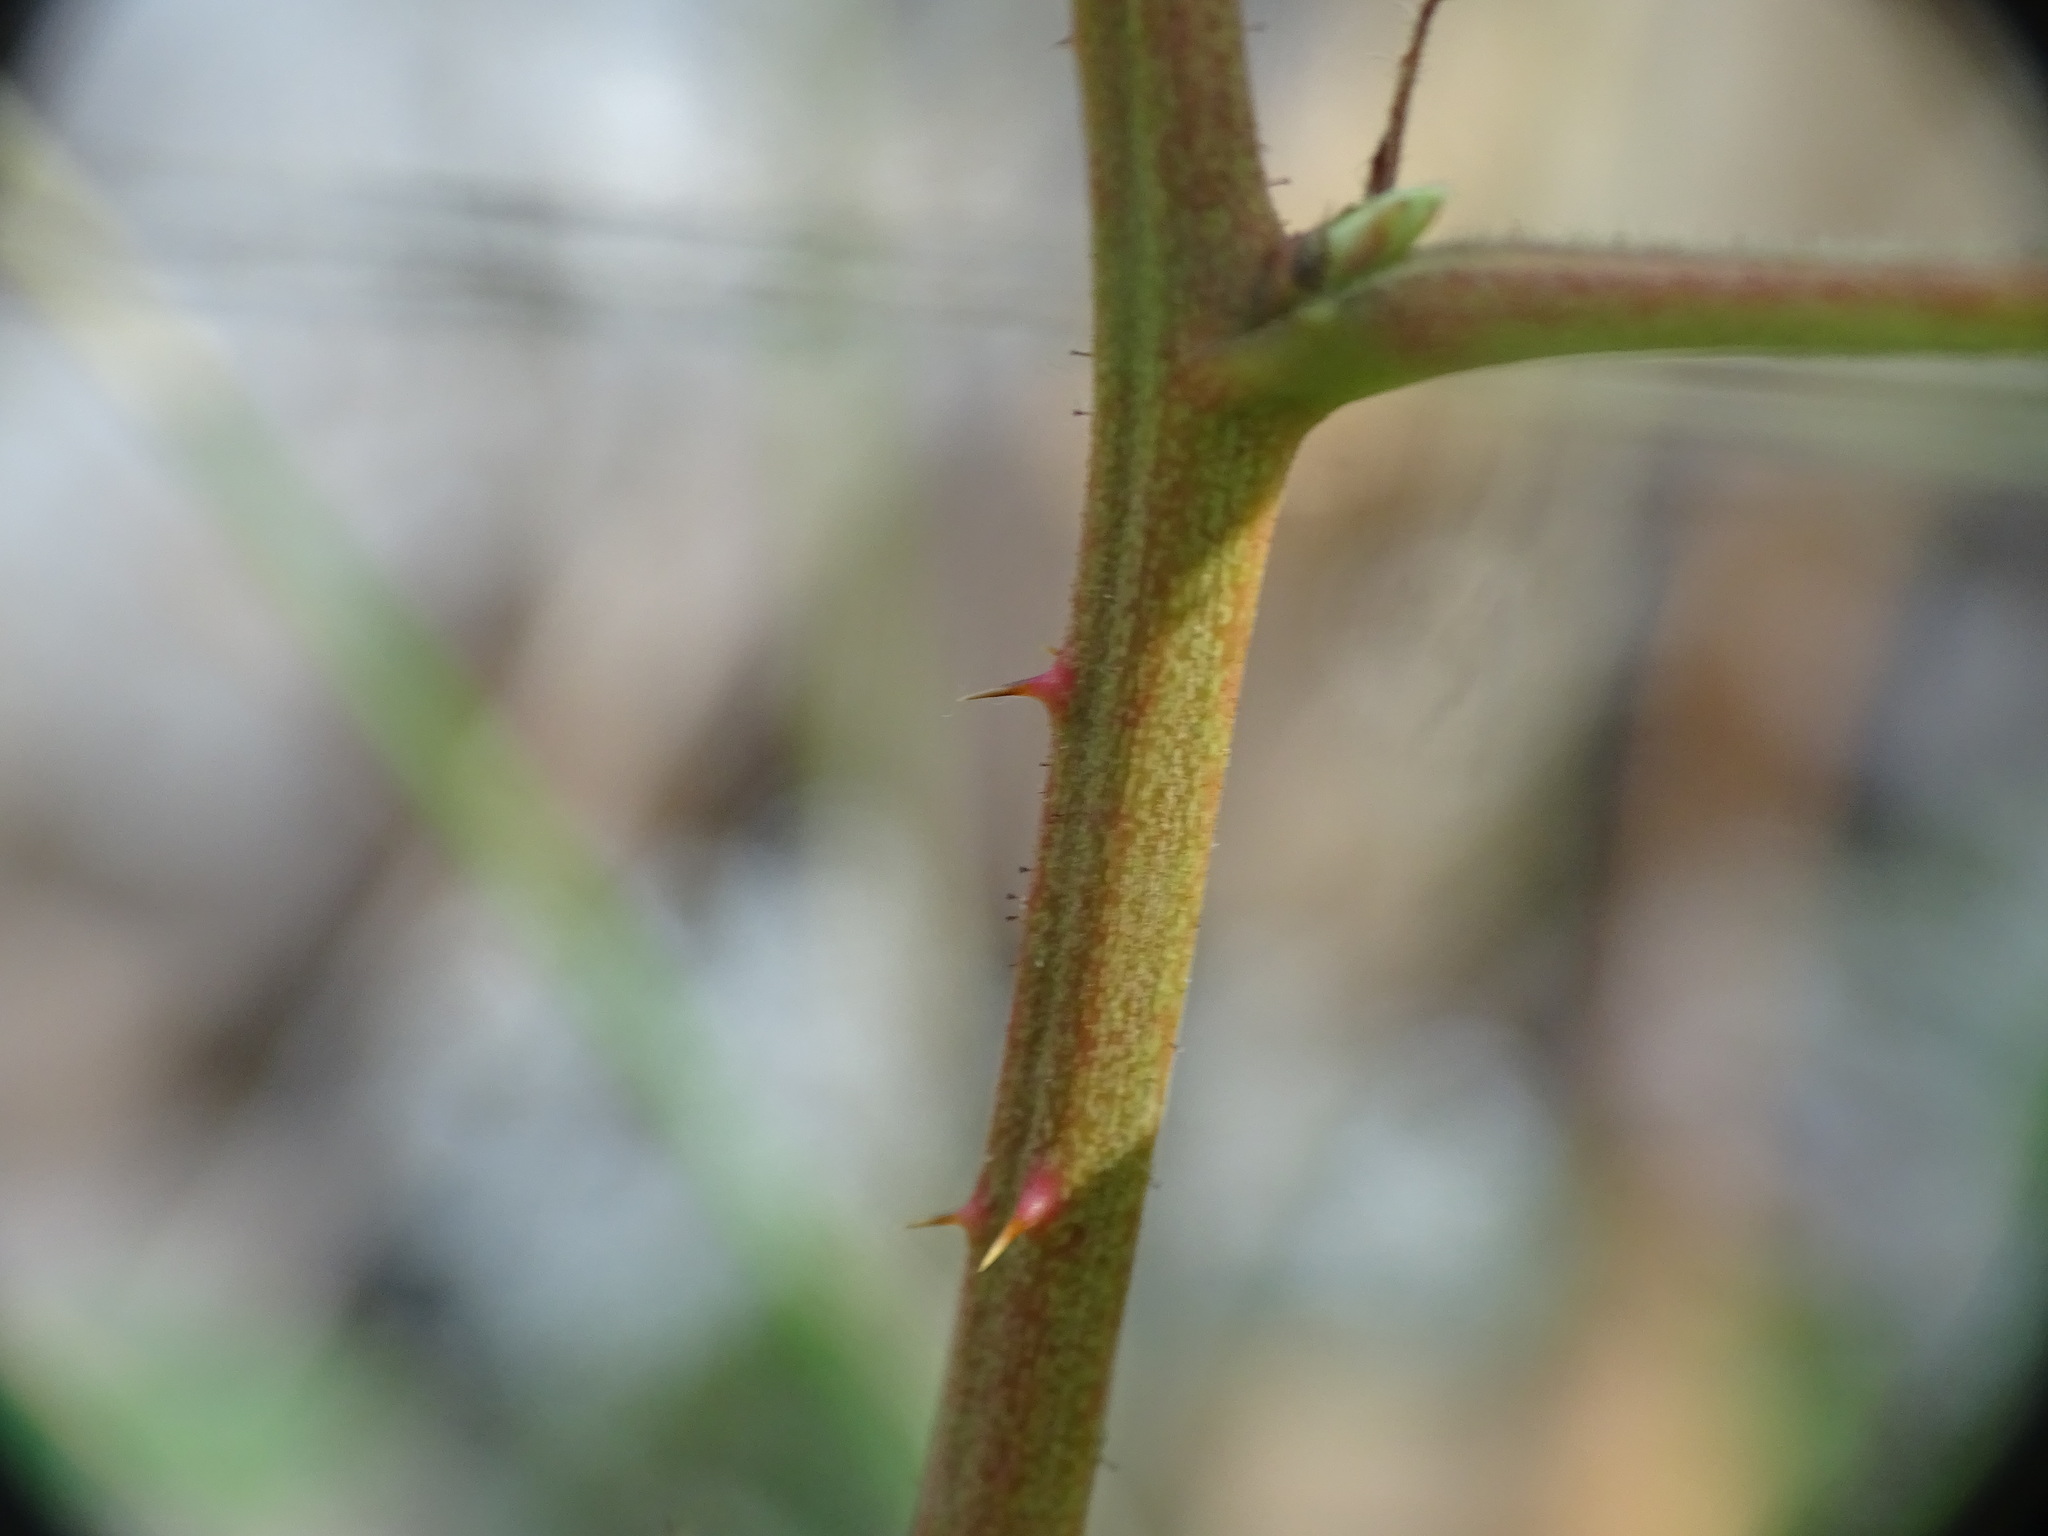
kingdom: Plantae
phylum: Tracheophyta
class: Magnoliopsida
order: Rosales
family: Rosaceae
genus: Rubus
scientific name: Rubus allegheniensis
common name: Allegheny blackberry
